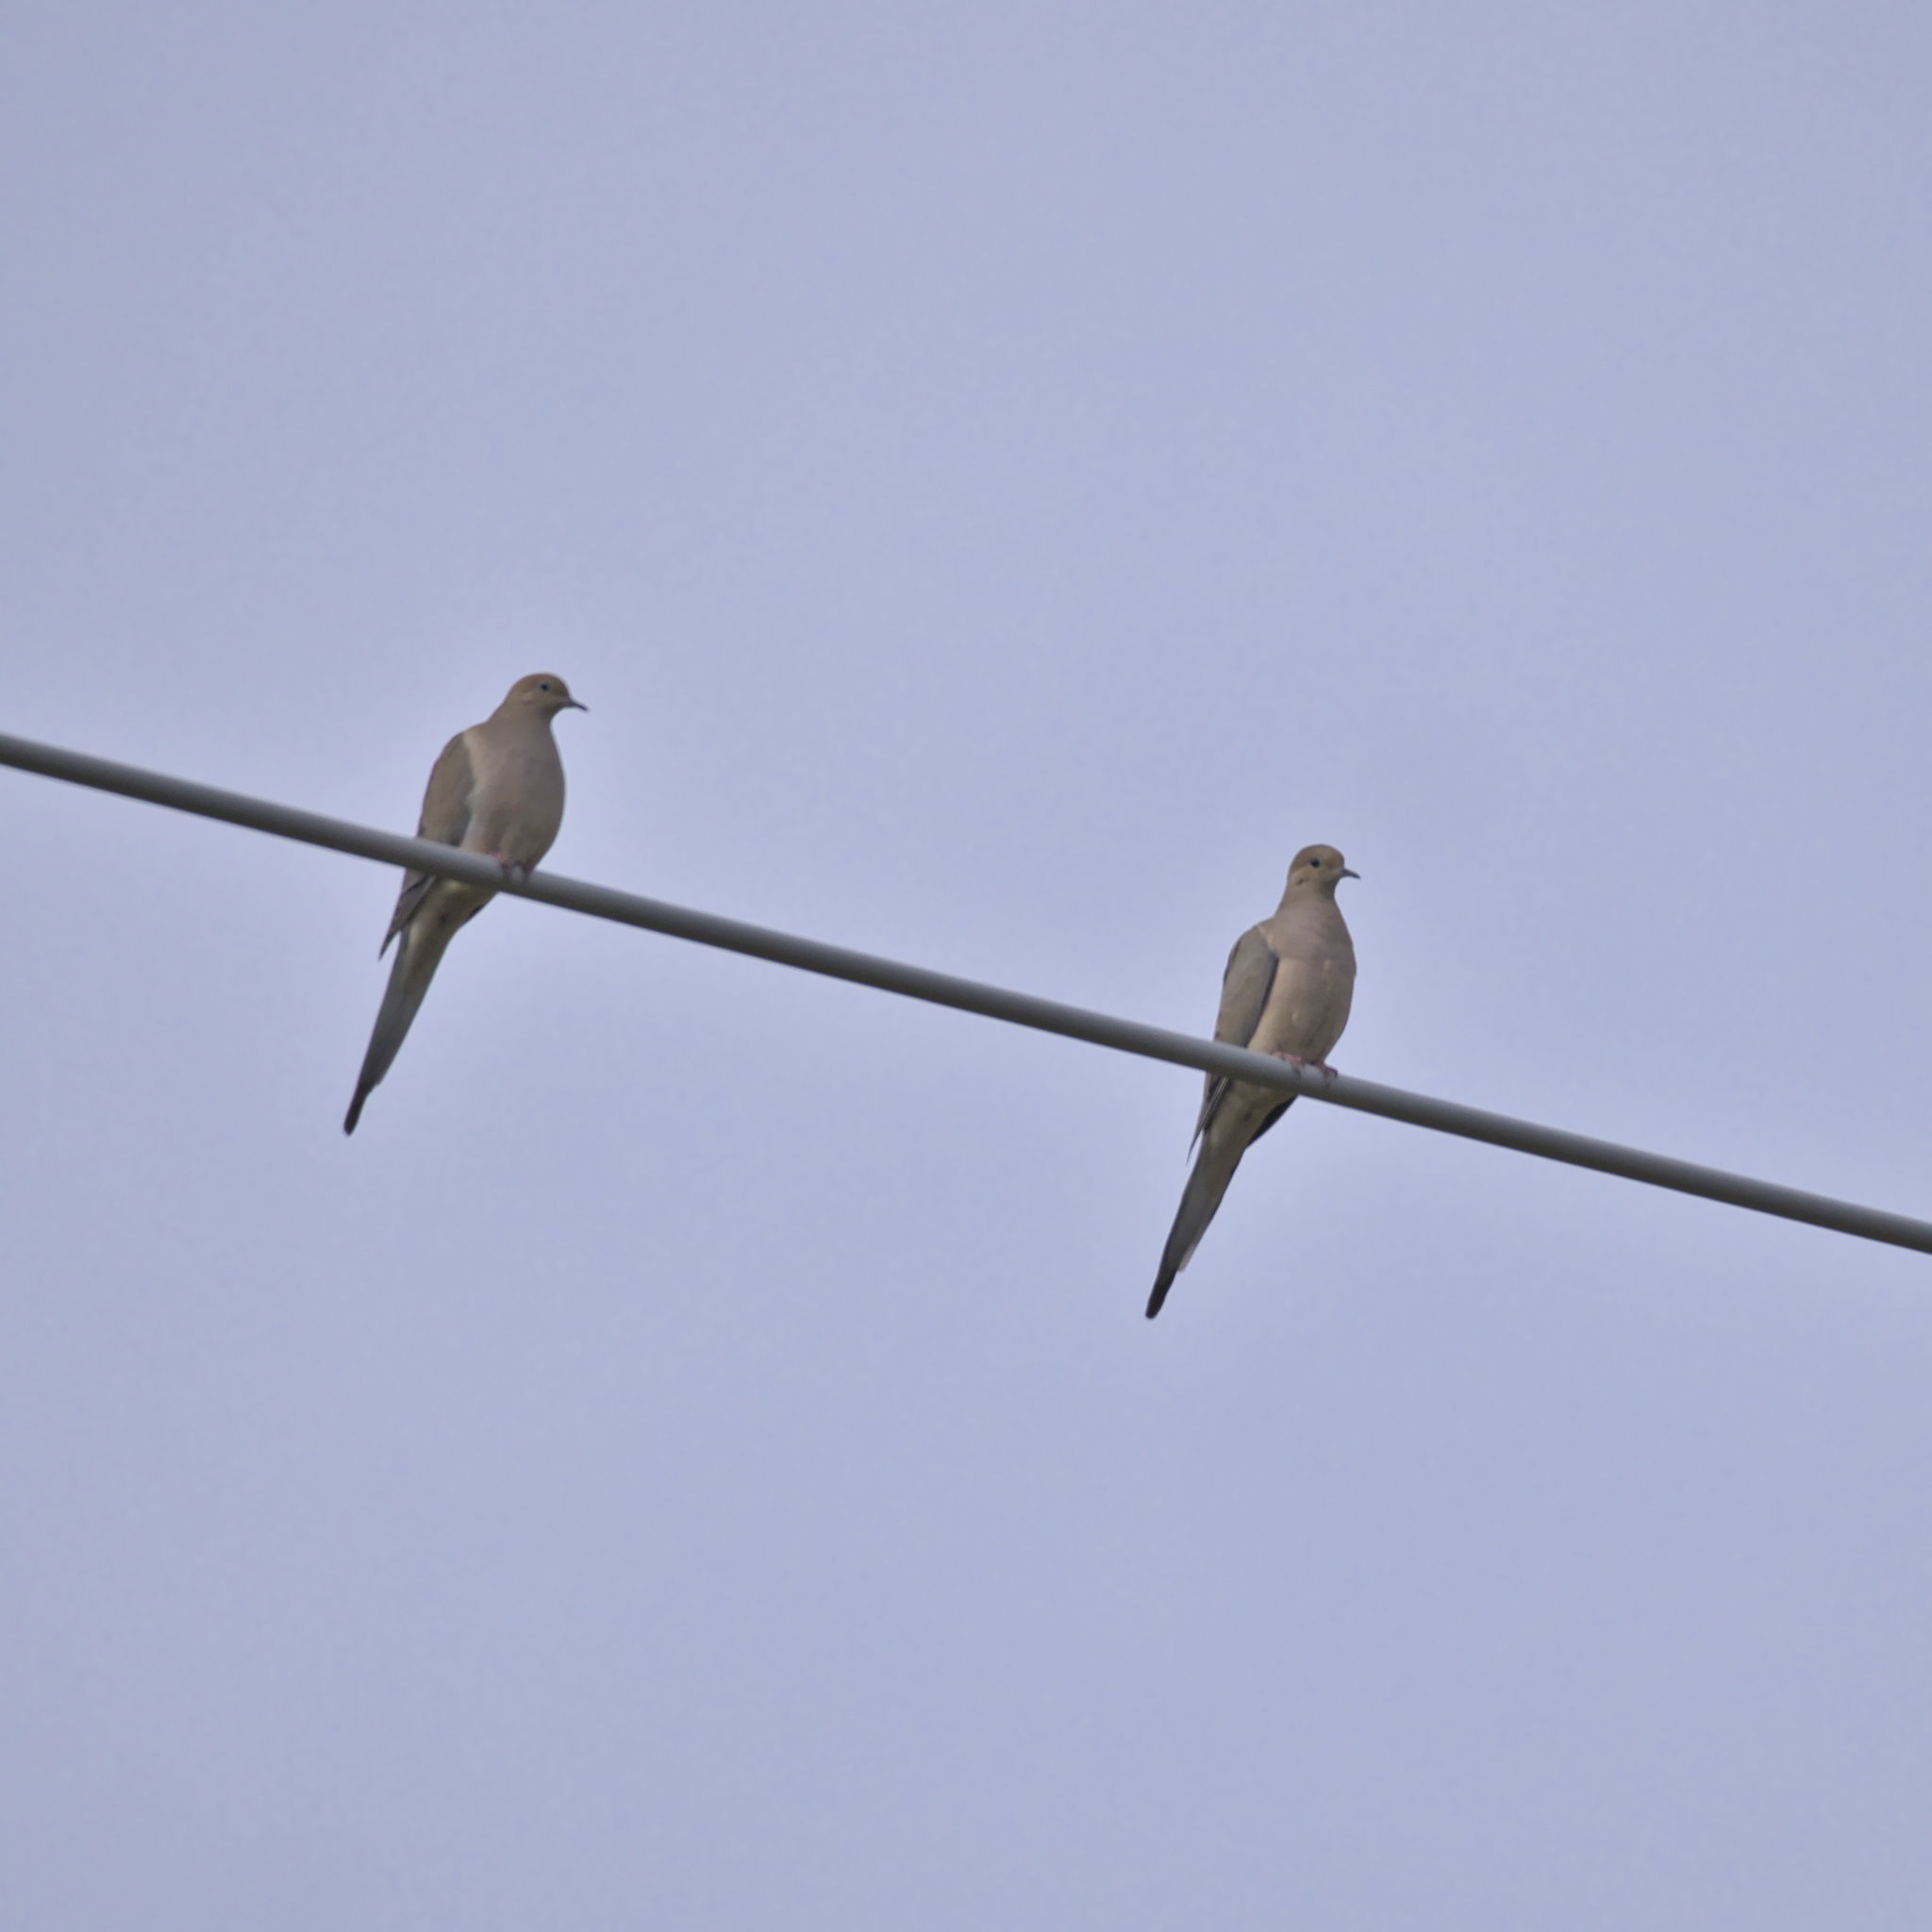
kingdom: Animalia
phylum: Chordata
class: Aves
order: Columbiformes
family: Columbidae
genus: Zenaida
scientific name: Zenaida macroura
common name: Mourning dove
